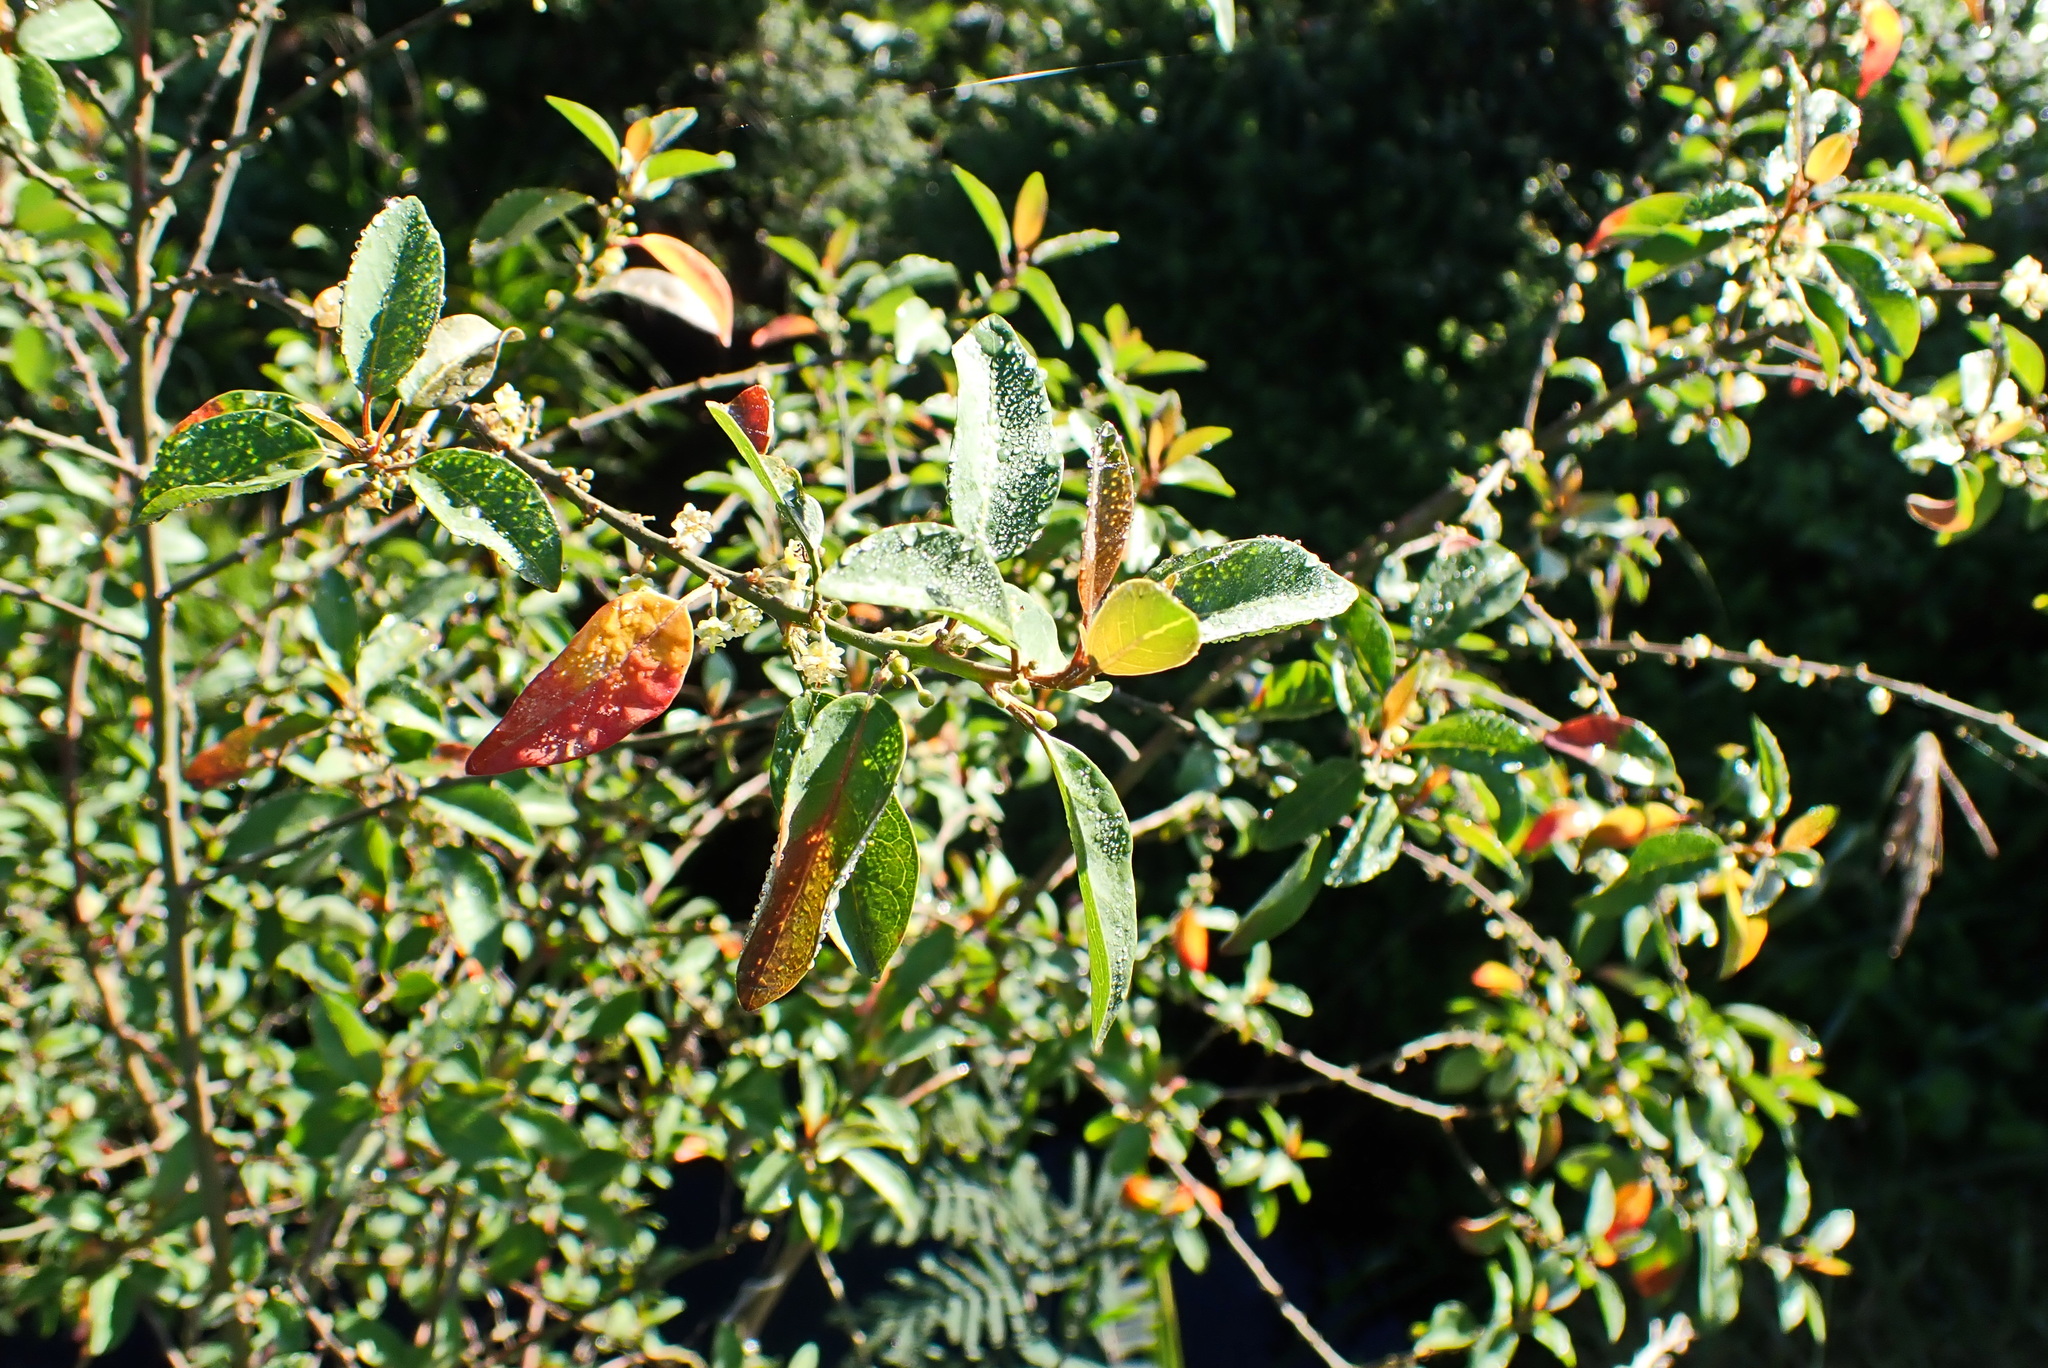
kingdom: Plantae
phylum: Tracheophyta
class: Magnoliopsida
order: Malpighiales
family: Peraceae
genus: Clutia
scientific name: Clutia pulchella
